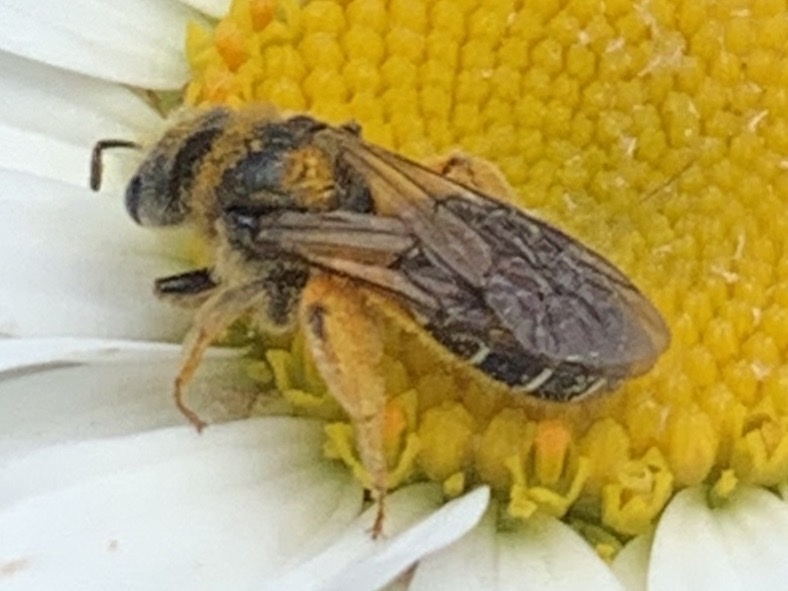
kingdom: Animalia
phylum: Arthropoda
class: Insecta
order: Hymenoptera
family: Halictidae
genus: Halictus
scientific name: Halictus rubicundus
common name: Orange-legged furrow bee
